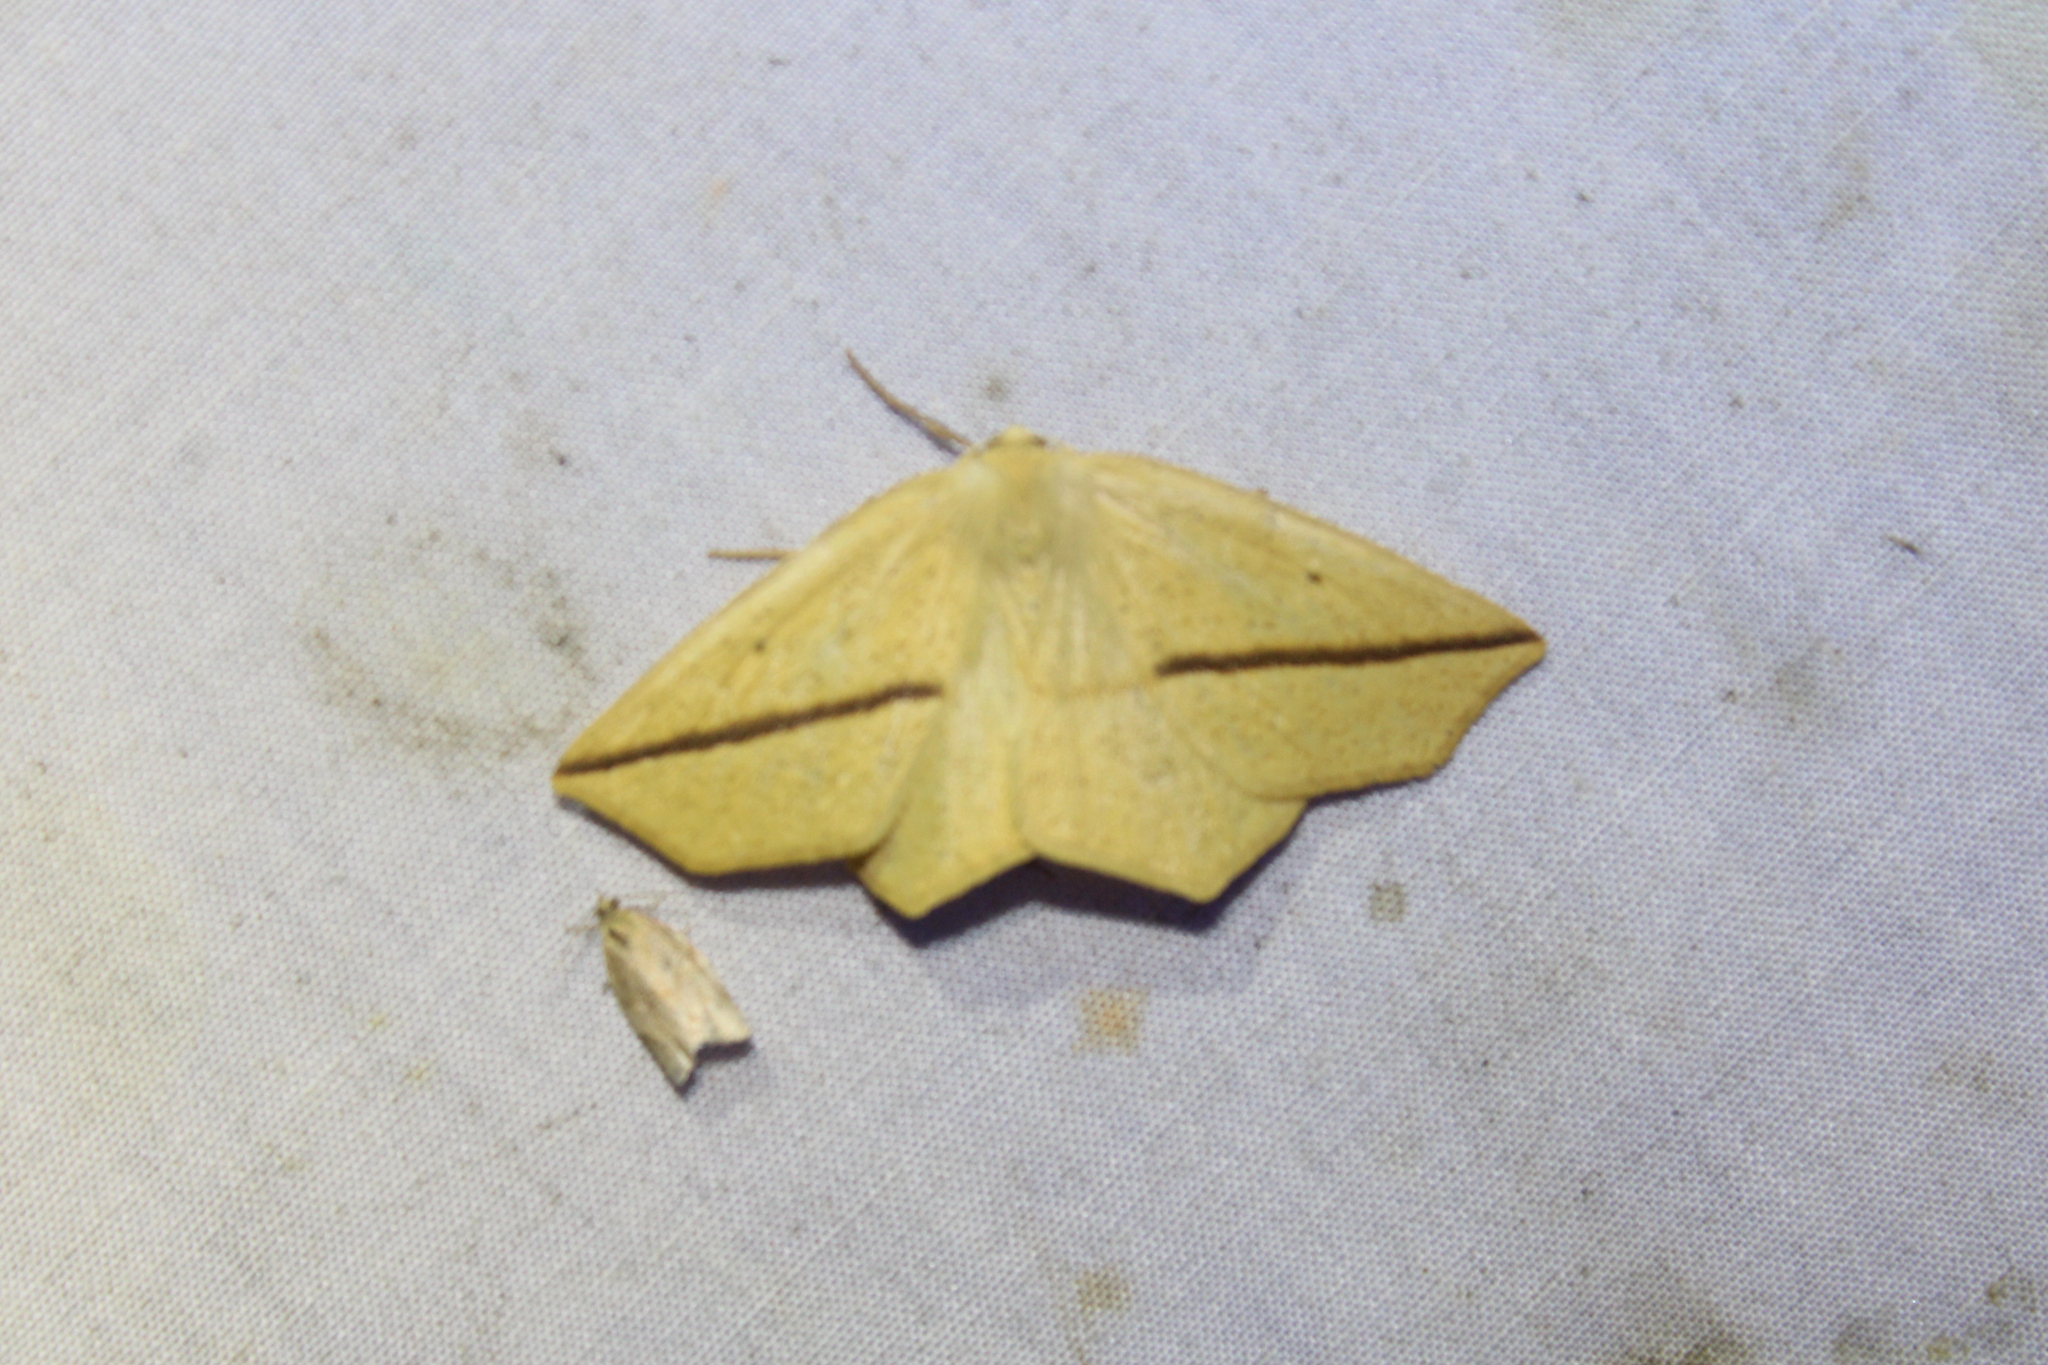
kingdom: Animalia
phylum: Arthropoda
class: Insecta
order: Lepidoptera
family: Geometridae
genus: Tetracis
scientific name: Tetracis crocallata
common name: Yellow slant-line
